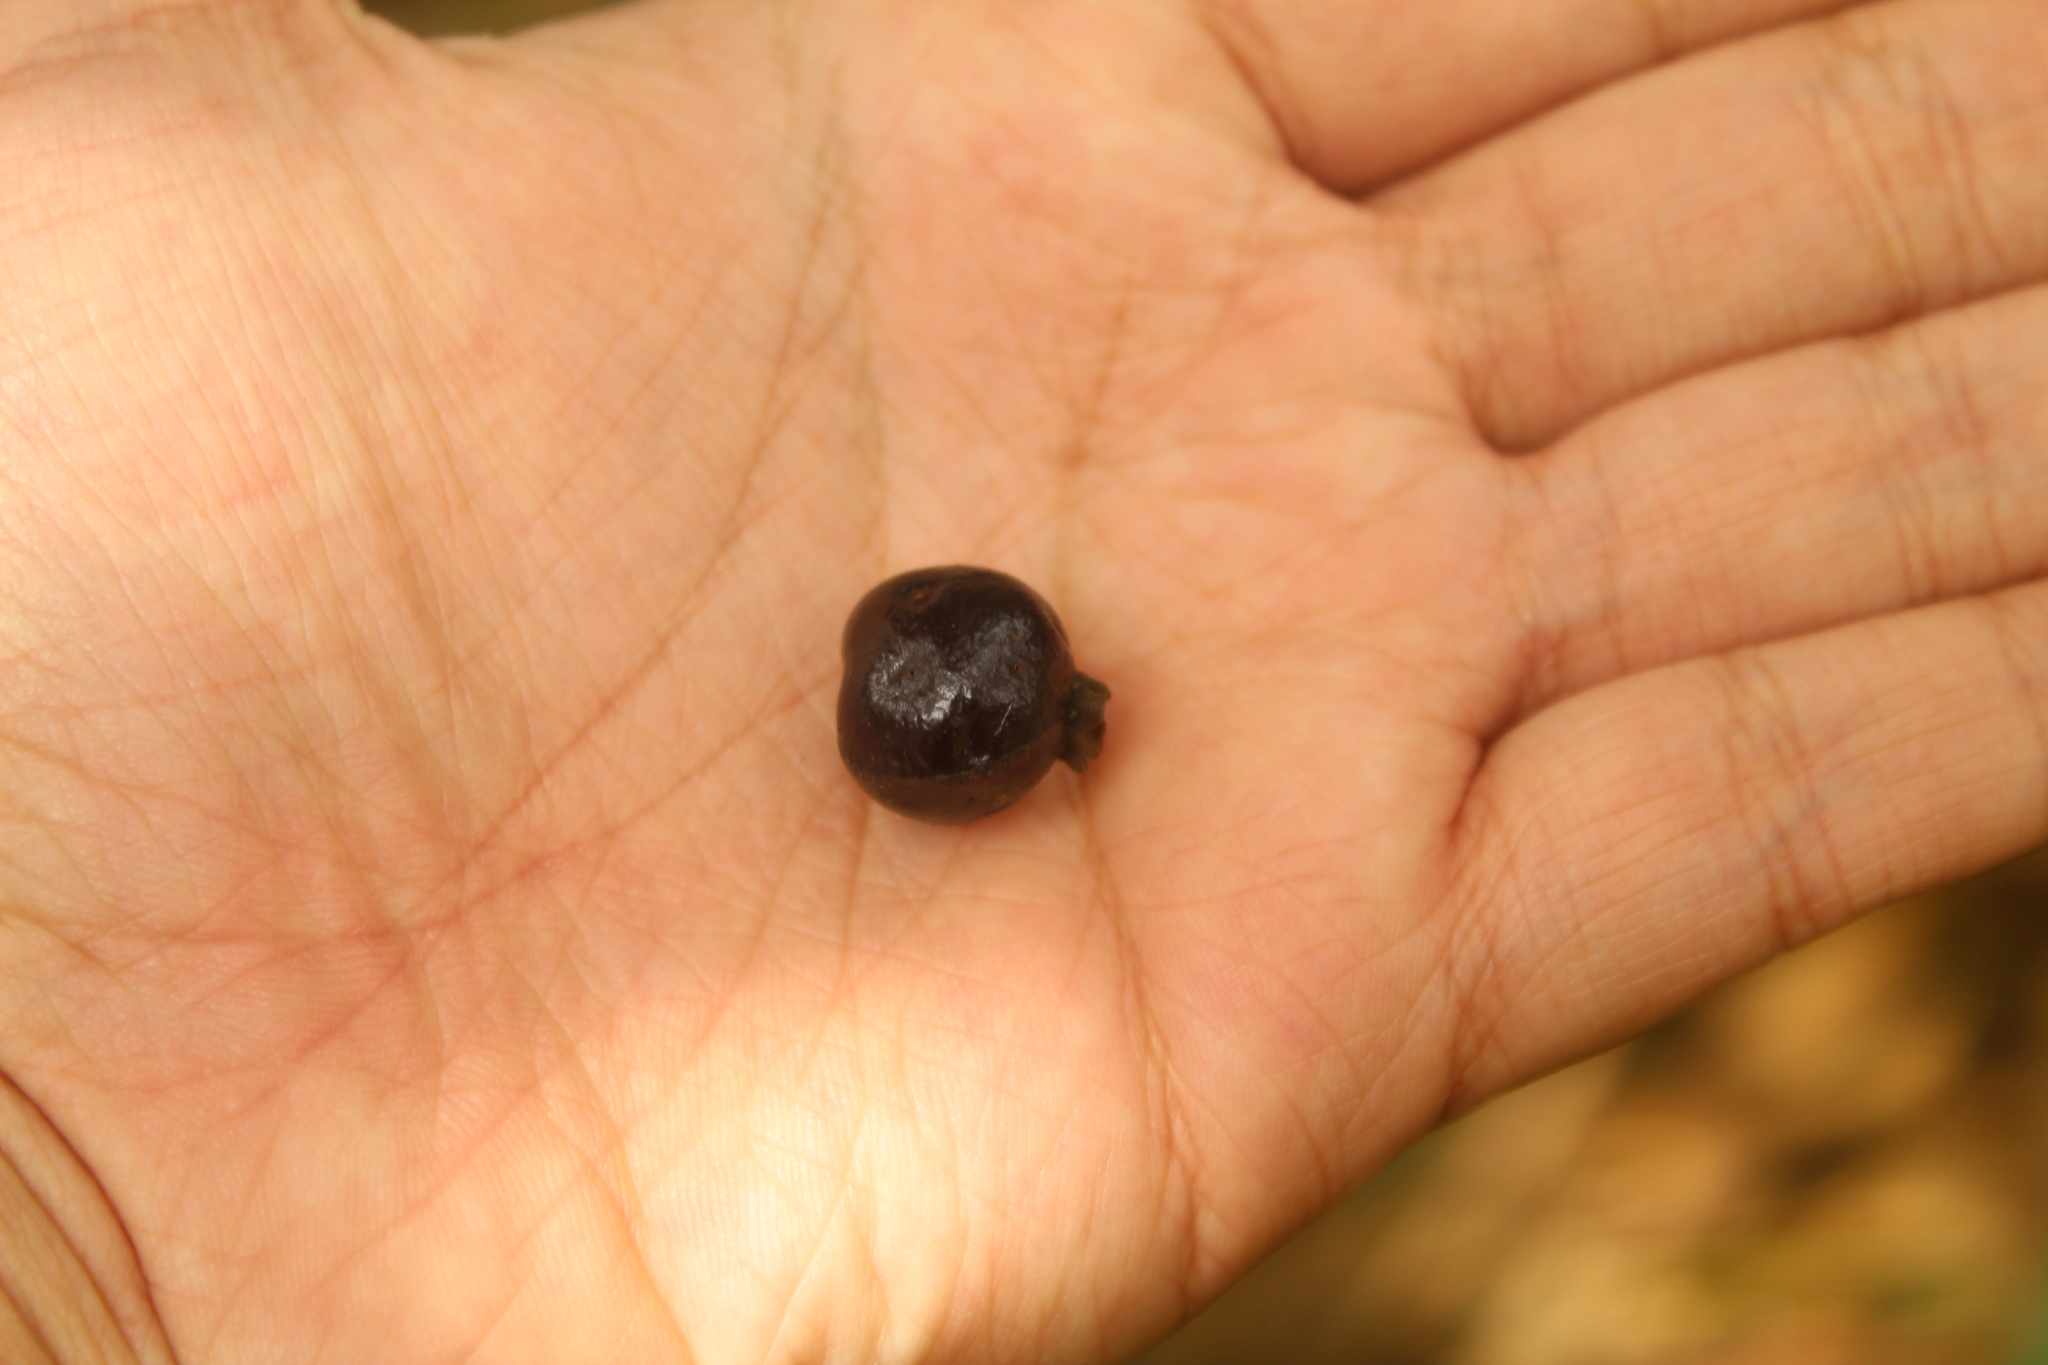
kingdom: Plantae
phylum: Tracheophyta
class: Magnoliopsida
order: Myrtales
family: Myrtaceae
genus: Myrcianthes
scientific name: Myrcianthes rhopaloides
